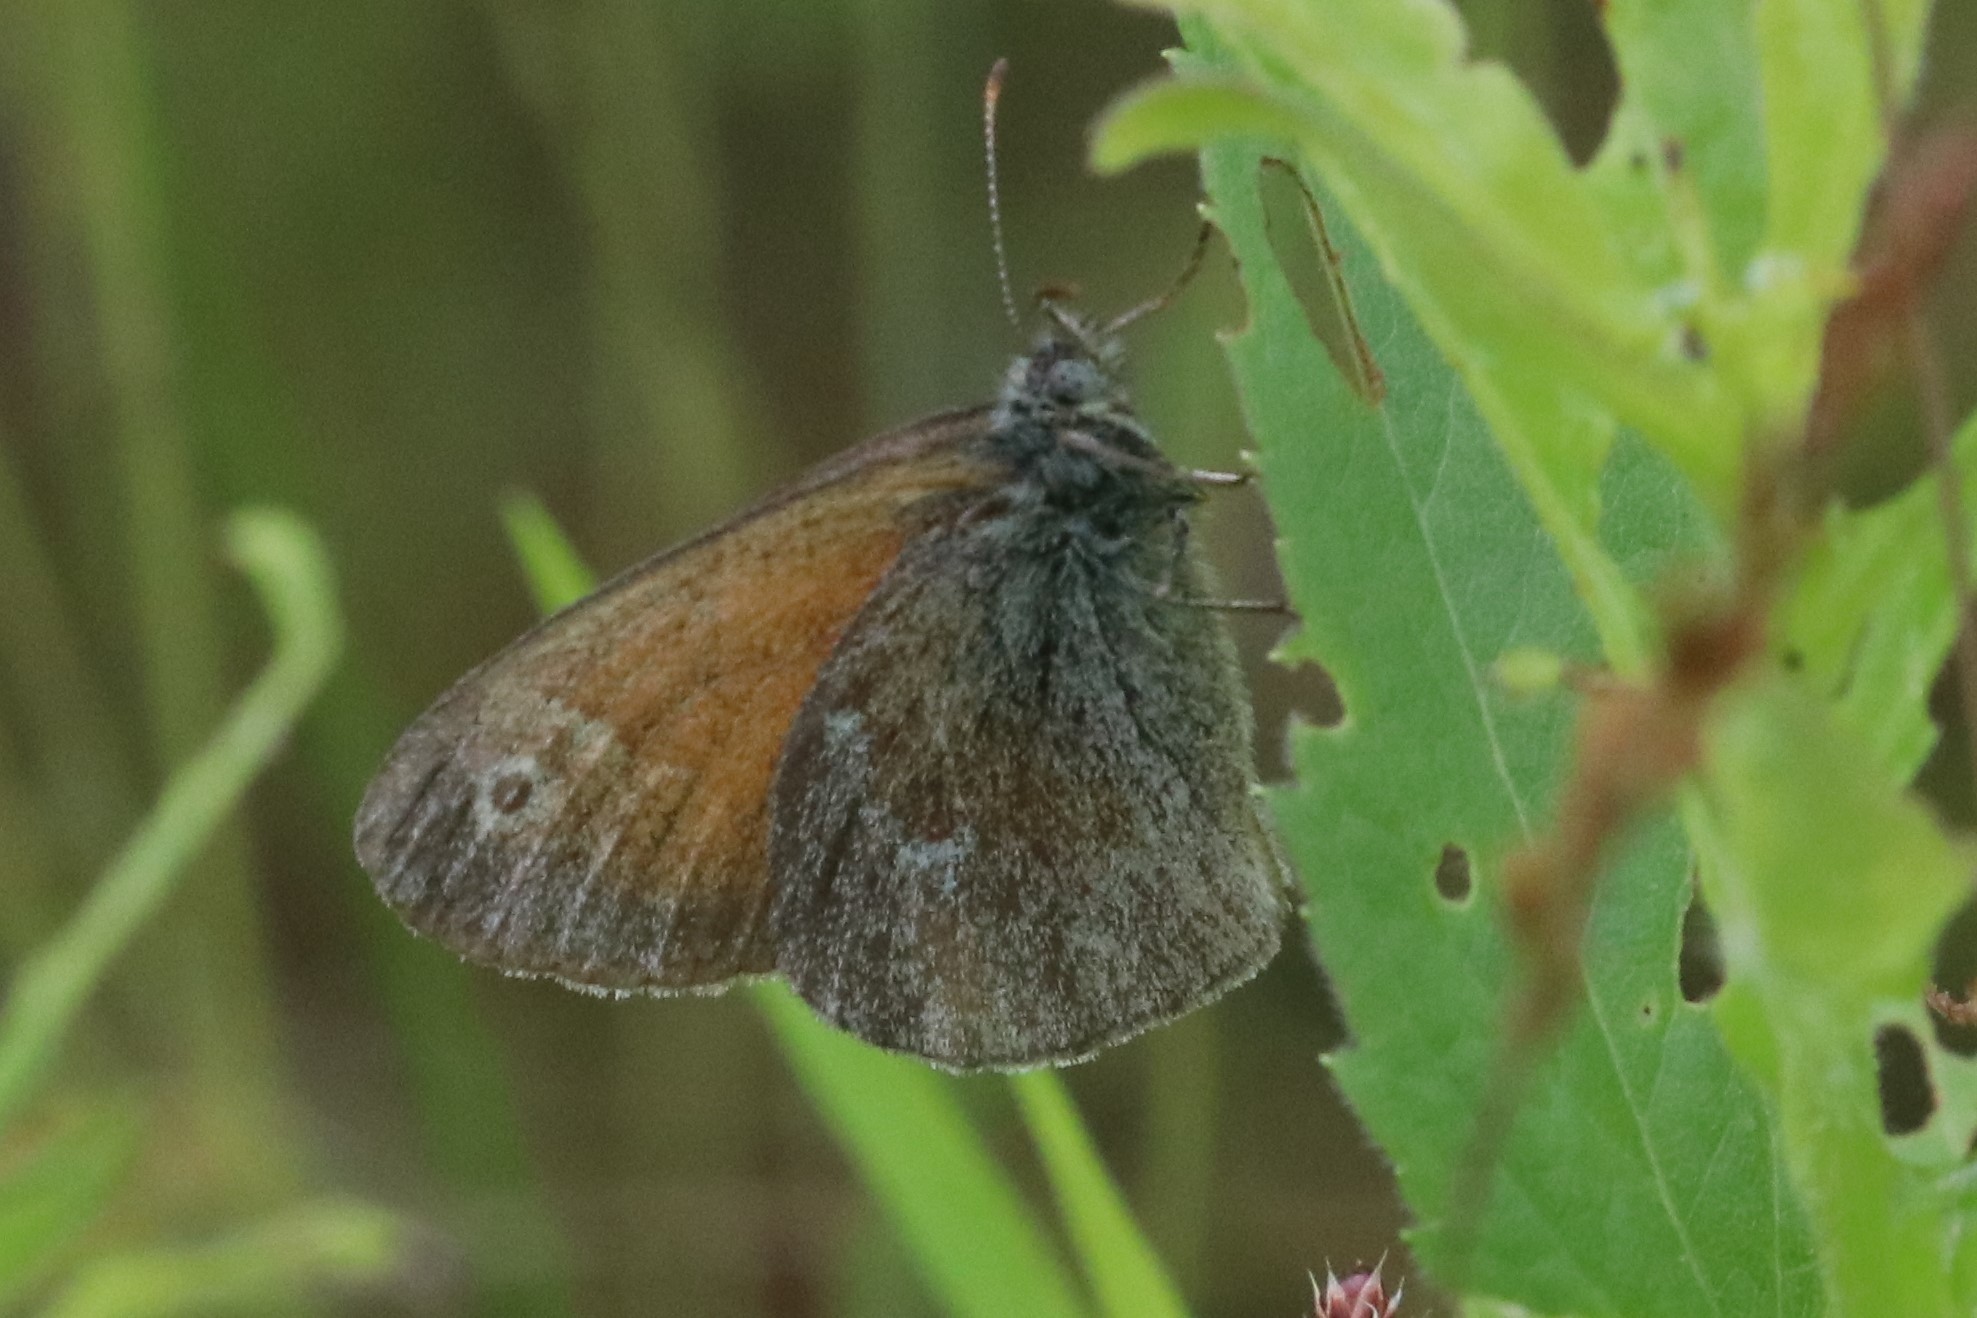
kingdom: Animalia
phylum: Arthropoda
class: Insecta
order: Lepidoptera
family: Nymphalidae
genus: Coenonympha
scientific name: Coenonympha california
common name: Common ringlet
